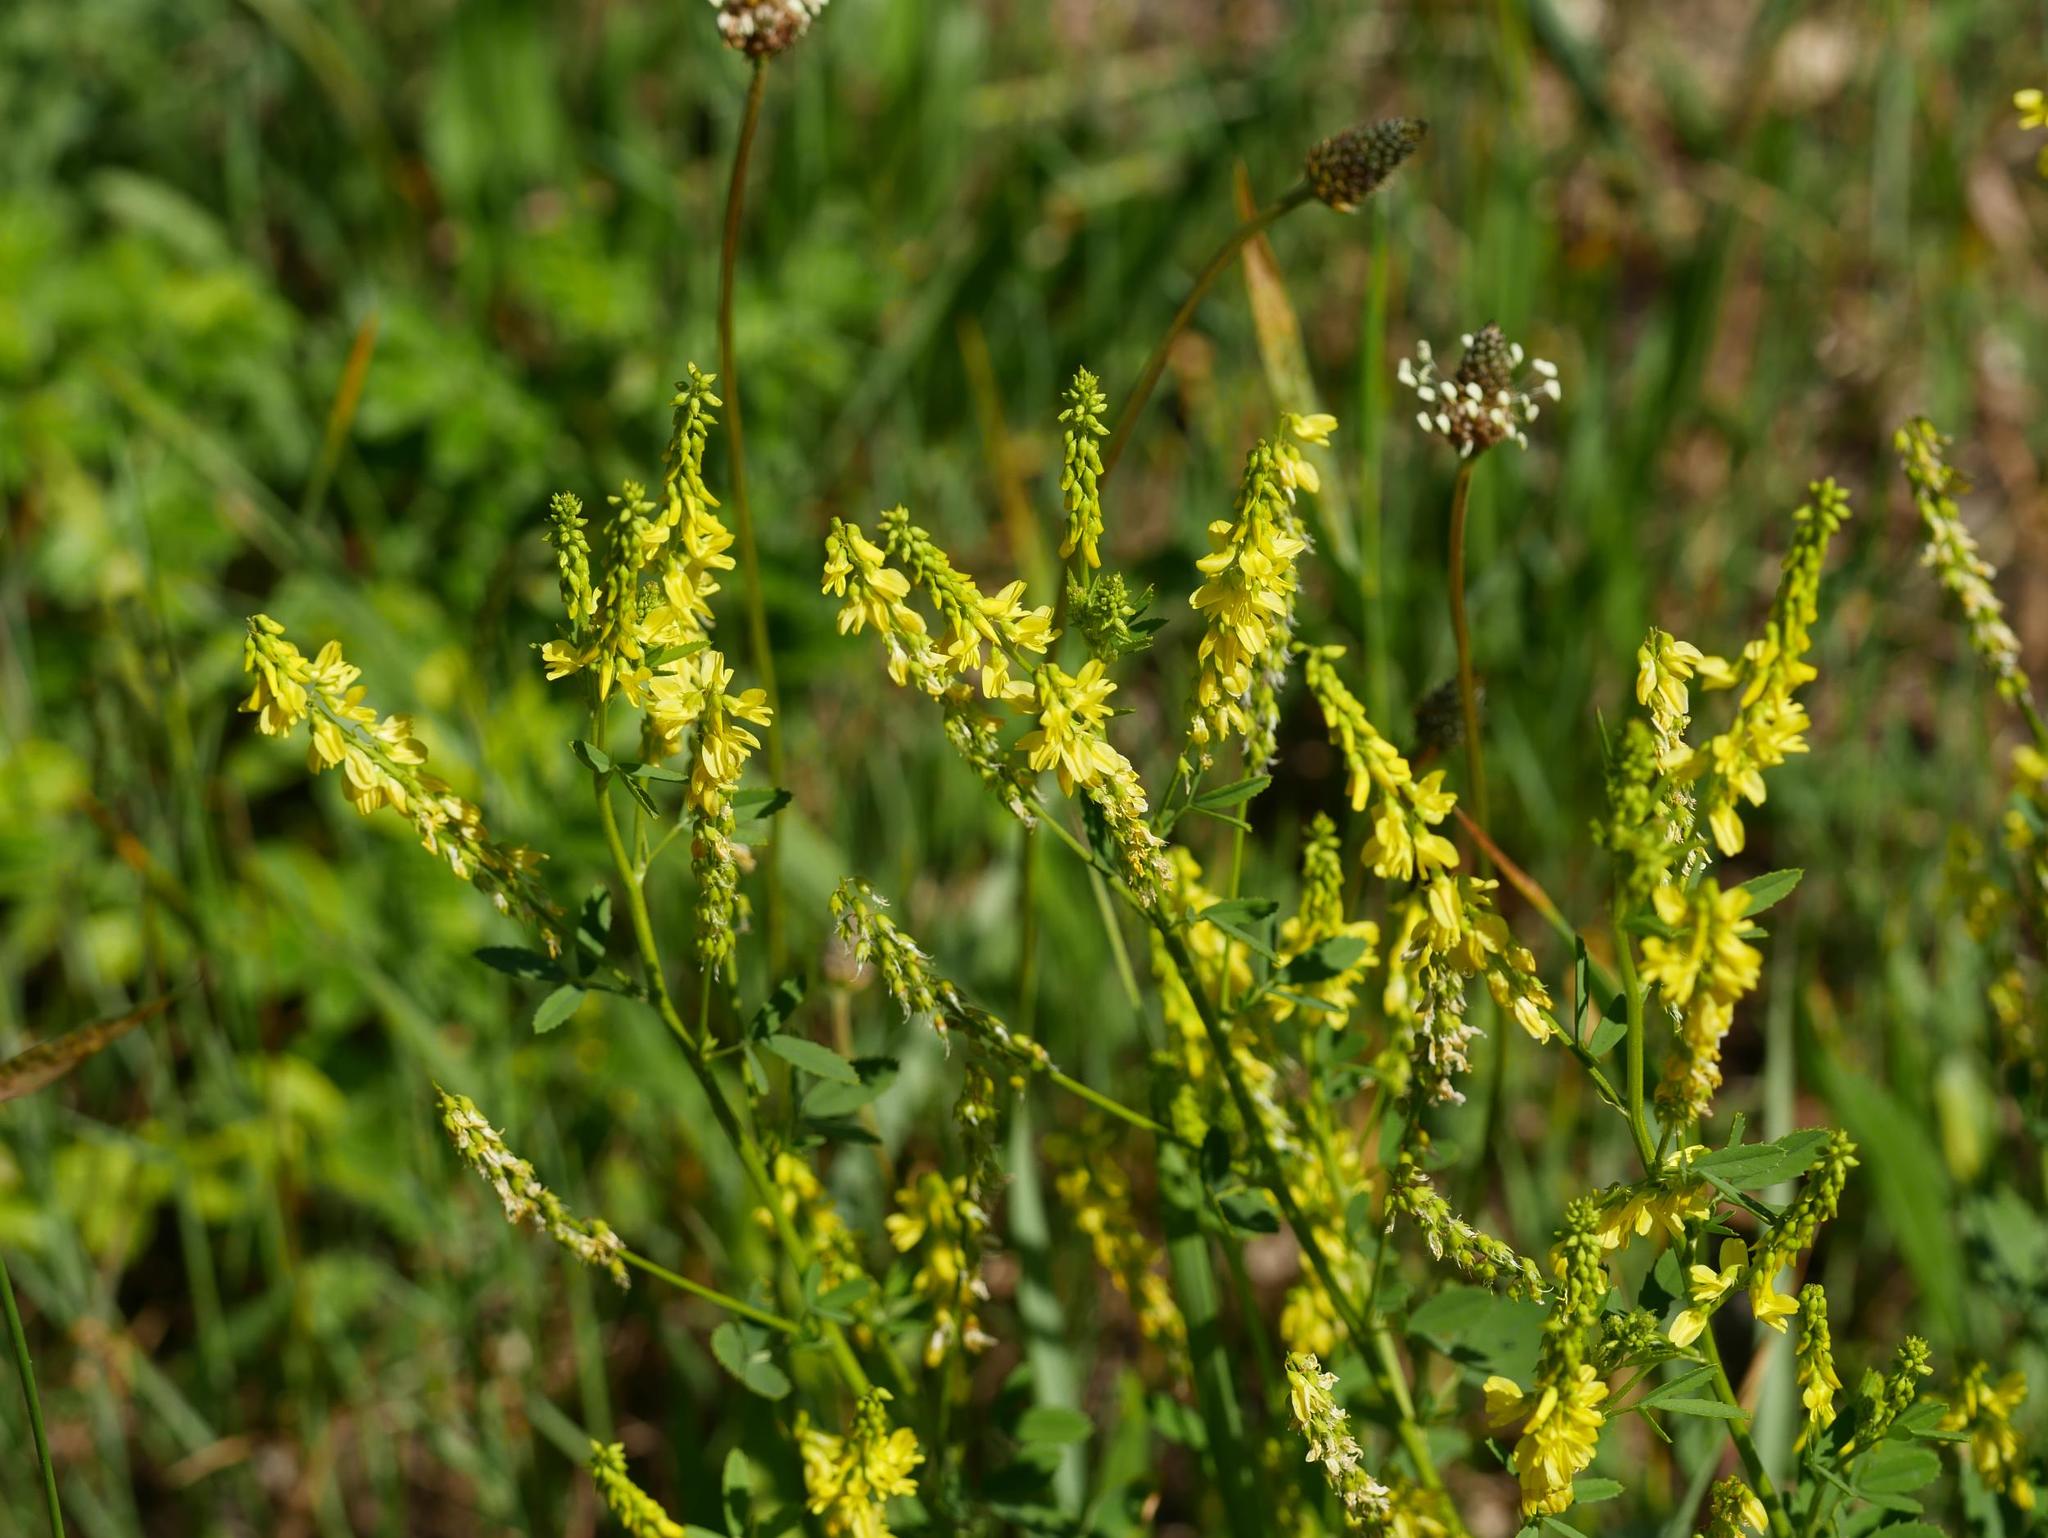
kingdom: Plantae
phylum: Tracheophyta
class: Magnoliopsida
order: Fabales
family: Fabaceae
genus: Melilotus
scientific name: Melilotus officinalis
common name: Sweetclover
